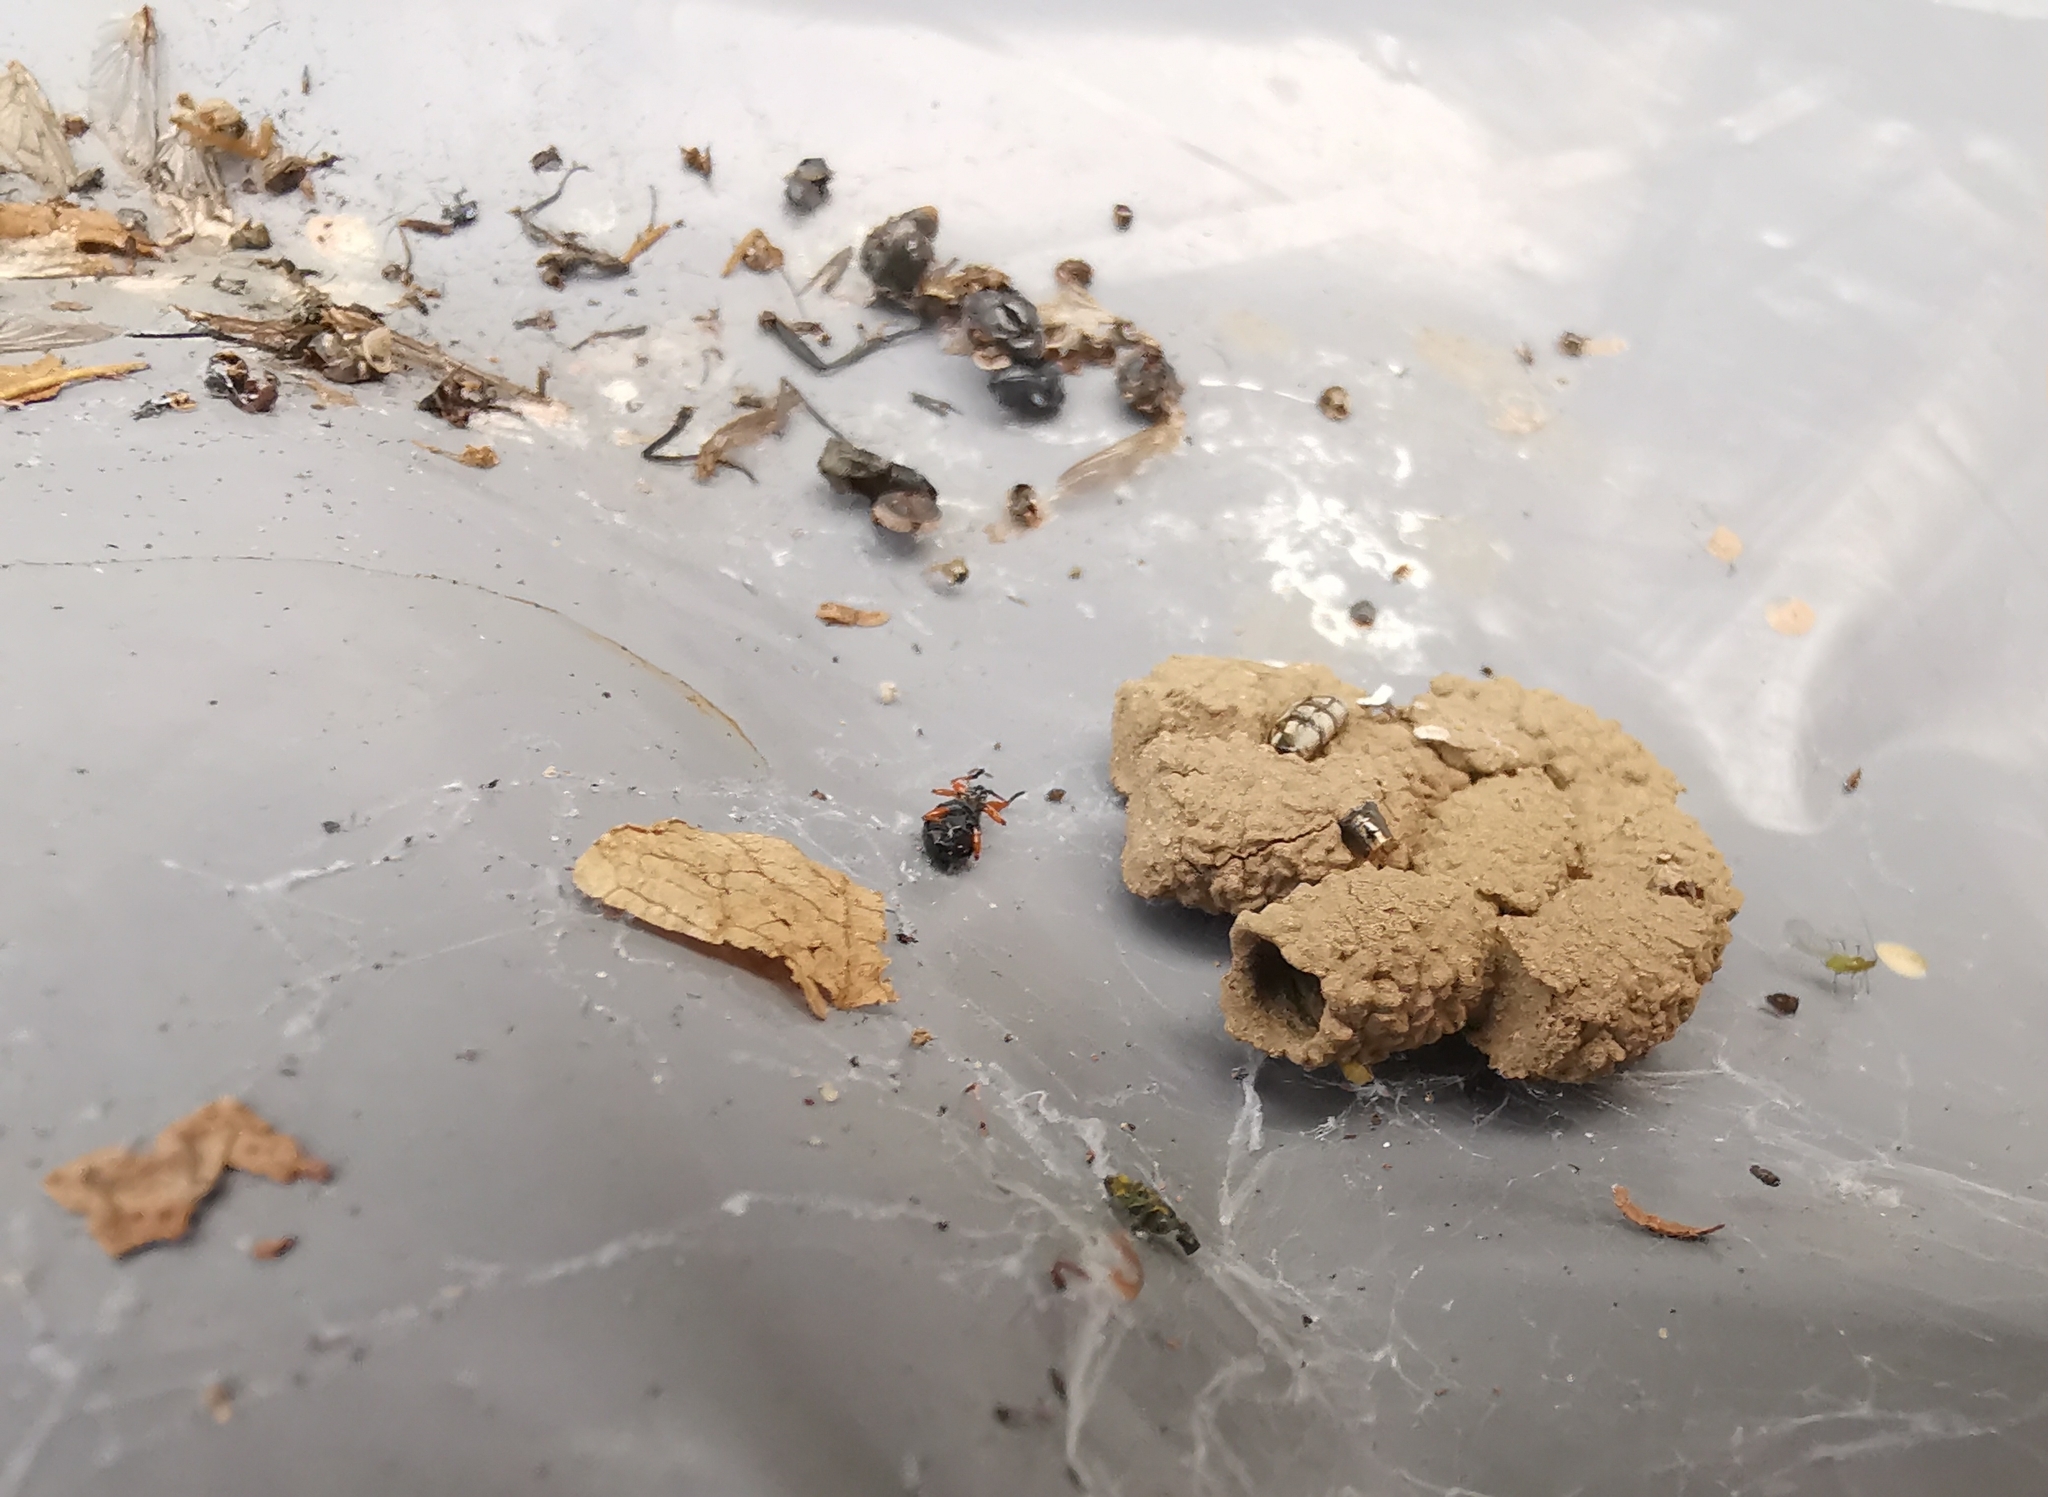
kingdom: Animalia
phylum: Arthropoda
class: Insecta
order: Hymenoptera
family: Pompilidae
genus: Auplopus
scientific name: Auplopus carbonarius
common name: Spider wasp
